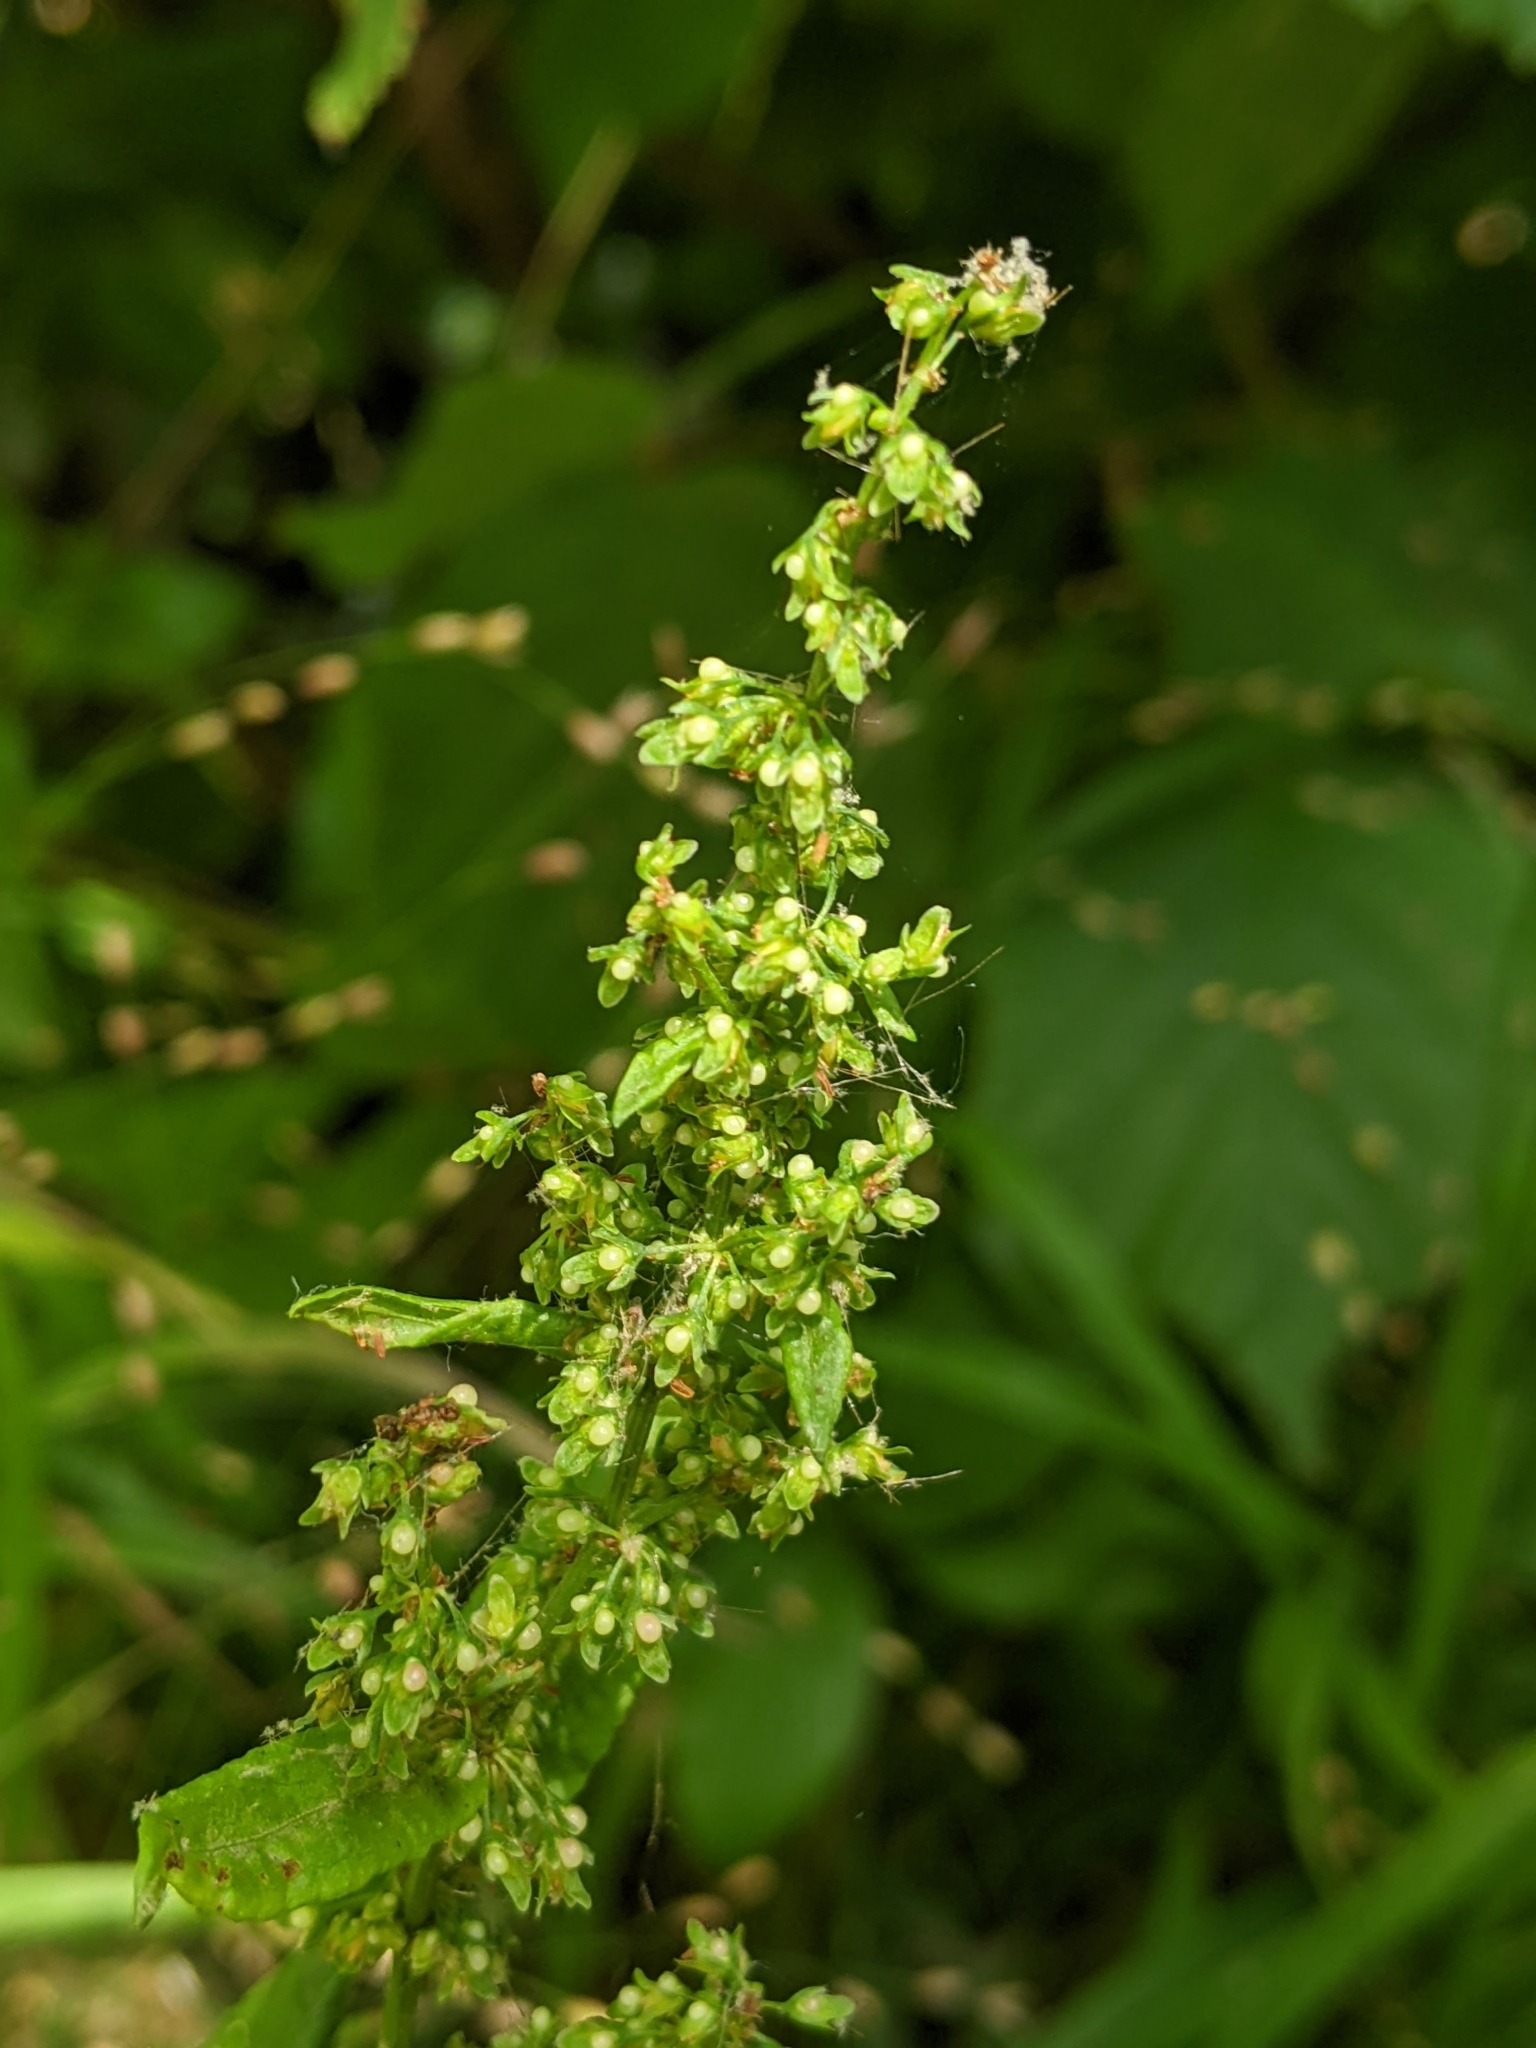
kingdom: Plantae
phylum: Tracheophyta
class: Magnoliopsida
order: Caryophyllales
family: Polygonaceae
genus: Rumex
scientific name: Rumex sanguineus
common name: Wood dock
